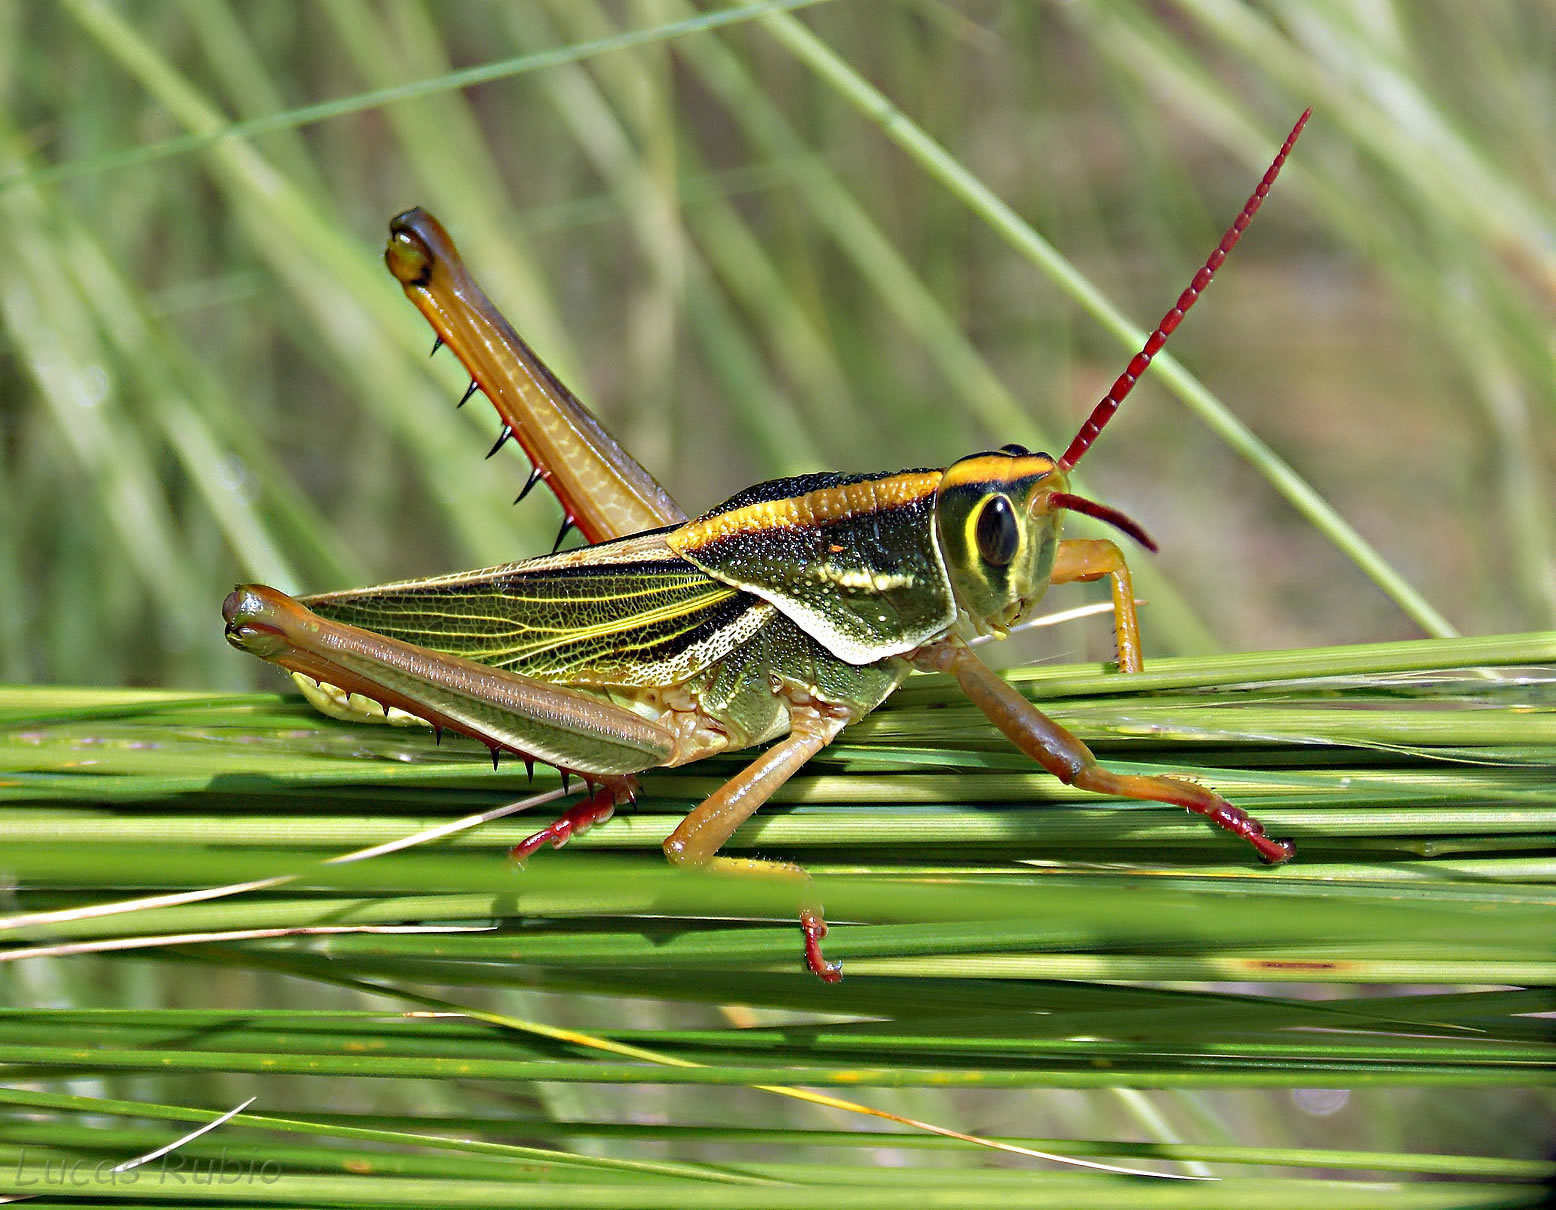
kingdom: Animalia
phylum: Arthropoda
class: Insecta
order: Orthoptera
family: Romaleidae
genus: Staleochlora
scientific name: Staleochlora viridicata
